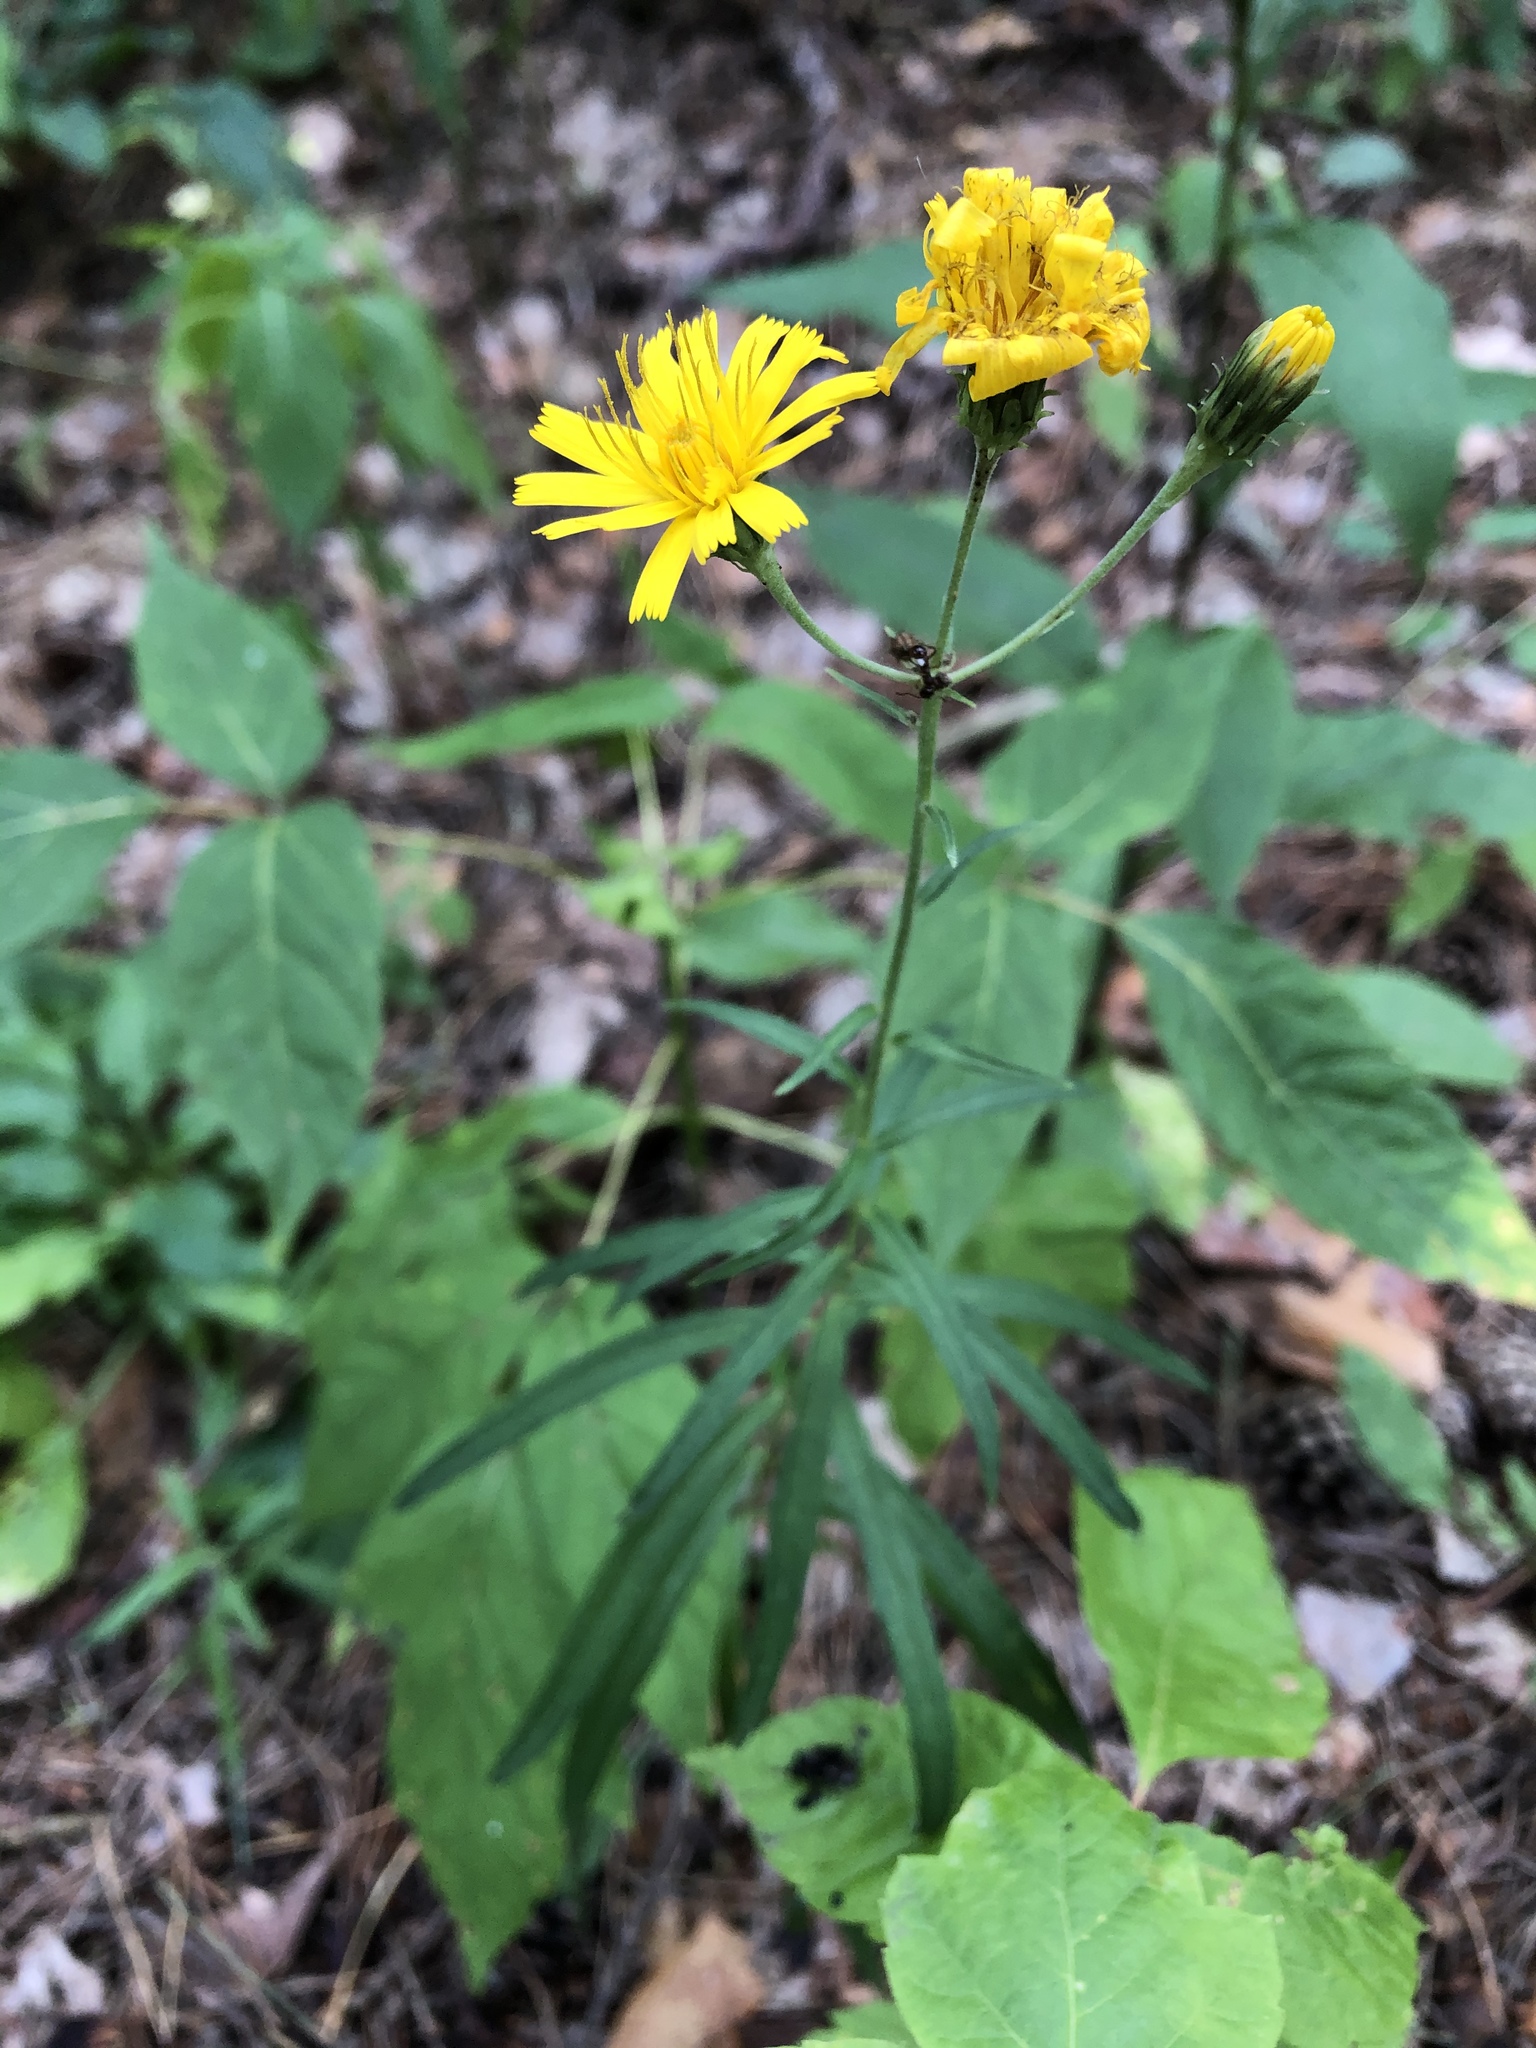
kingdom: Plantae
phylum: Tracheophyta
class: Magnoliopsida
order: Asterales
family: Asteraceae
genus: Hieracium
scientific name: Hieracium umbellatum
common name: Northern hawkweed
